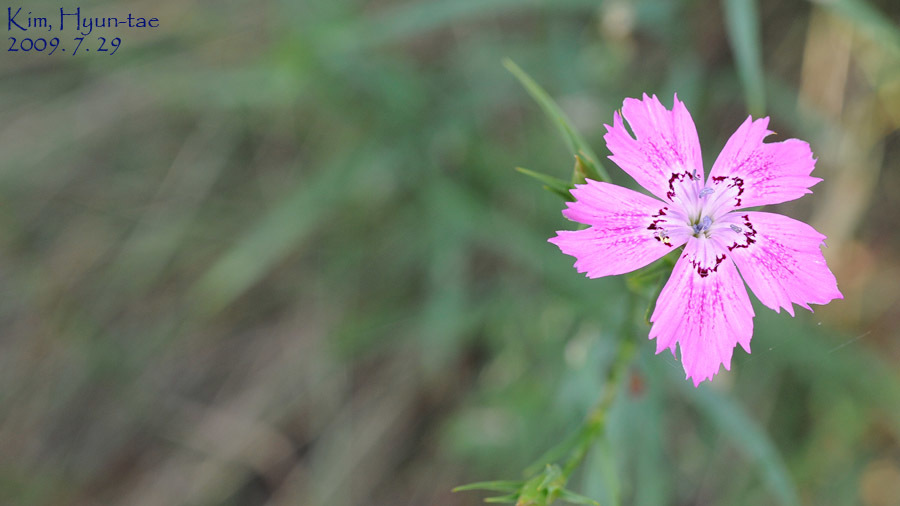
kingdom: Plantae
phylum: Tracheophyta
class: Magnoliopsida
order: Caryophyllales
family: Caryophyllaceae
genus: Dianthus
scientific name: Dianthus chinensis
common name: Rainbow pink
